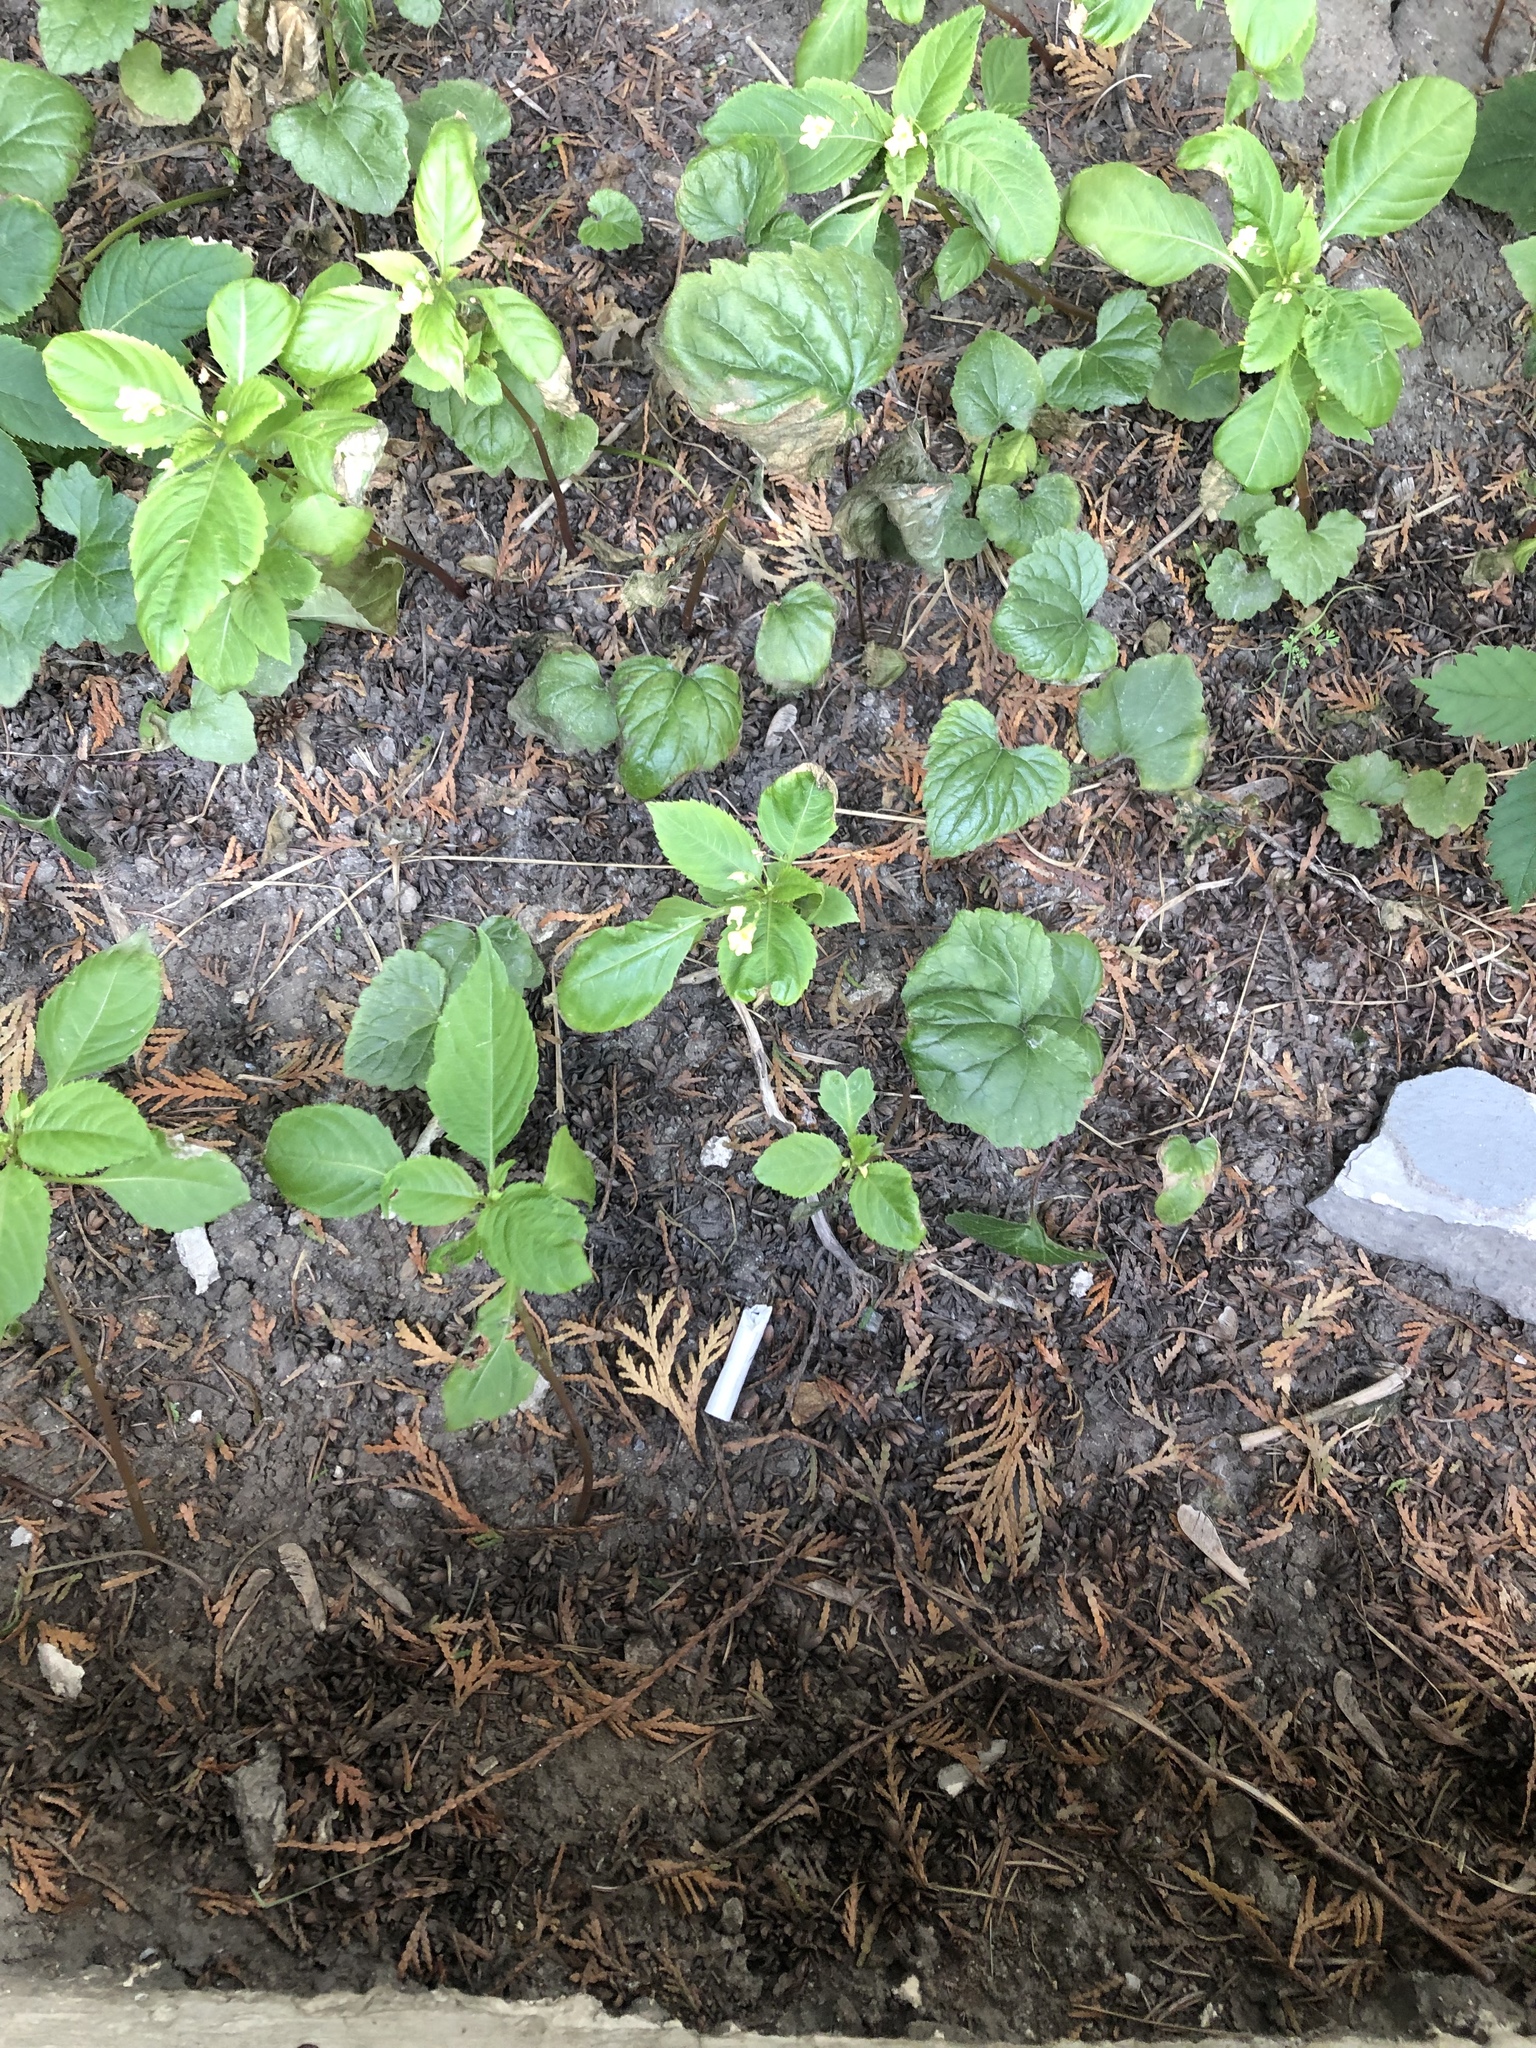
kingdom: Plantae
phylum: Tracheophyta
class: Magnoliopsida
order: Ericales
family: Balsaminaceae
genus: Impatiens
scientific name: Impatiens parviflora
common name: Small balsam
